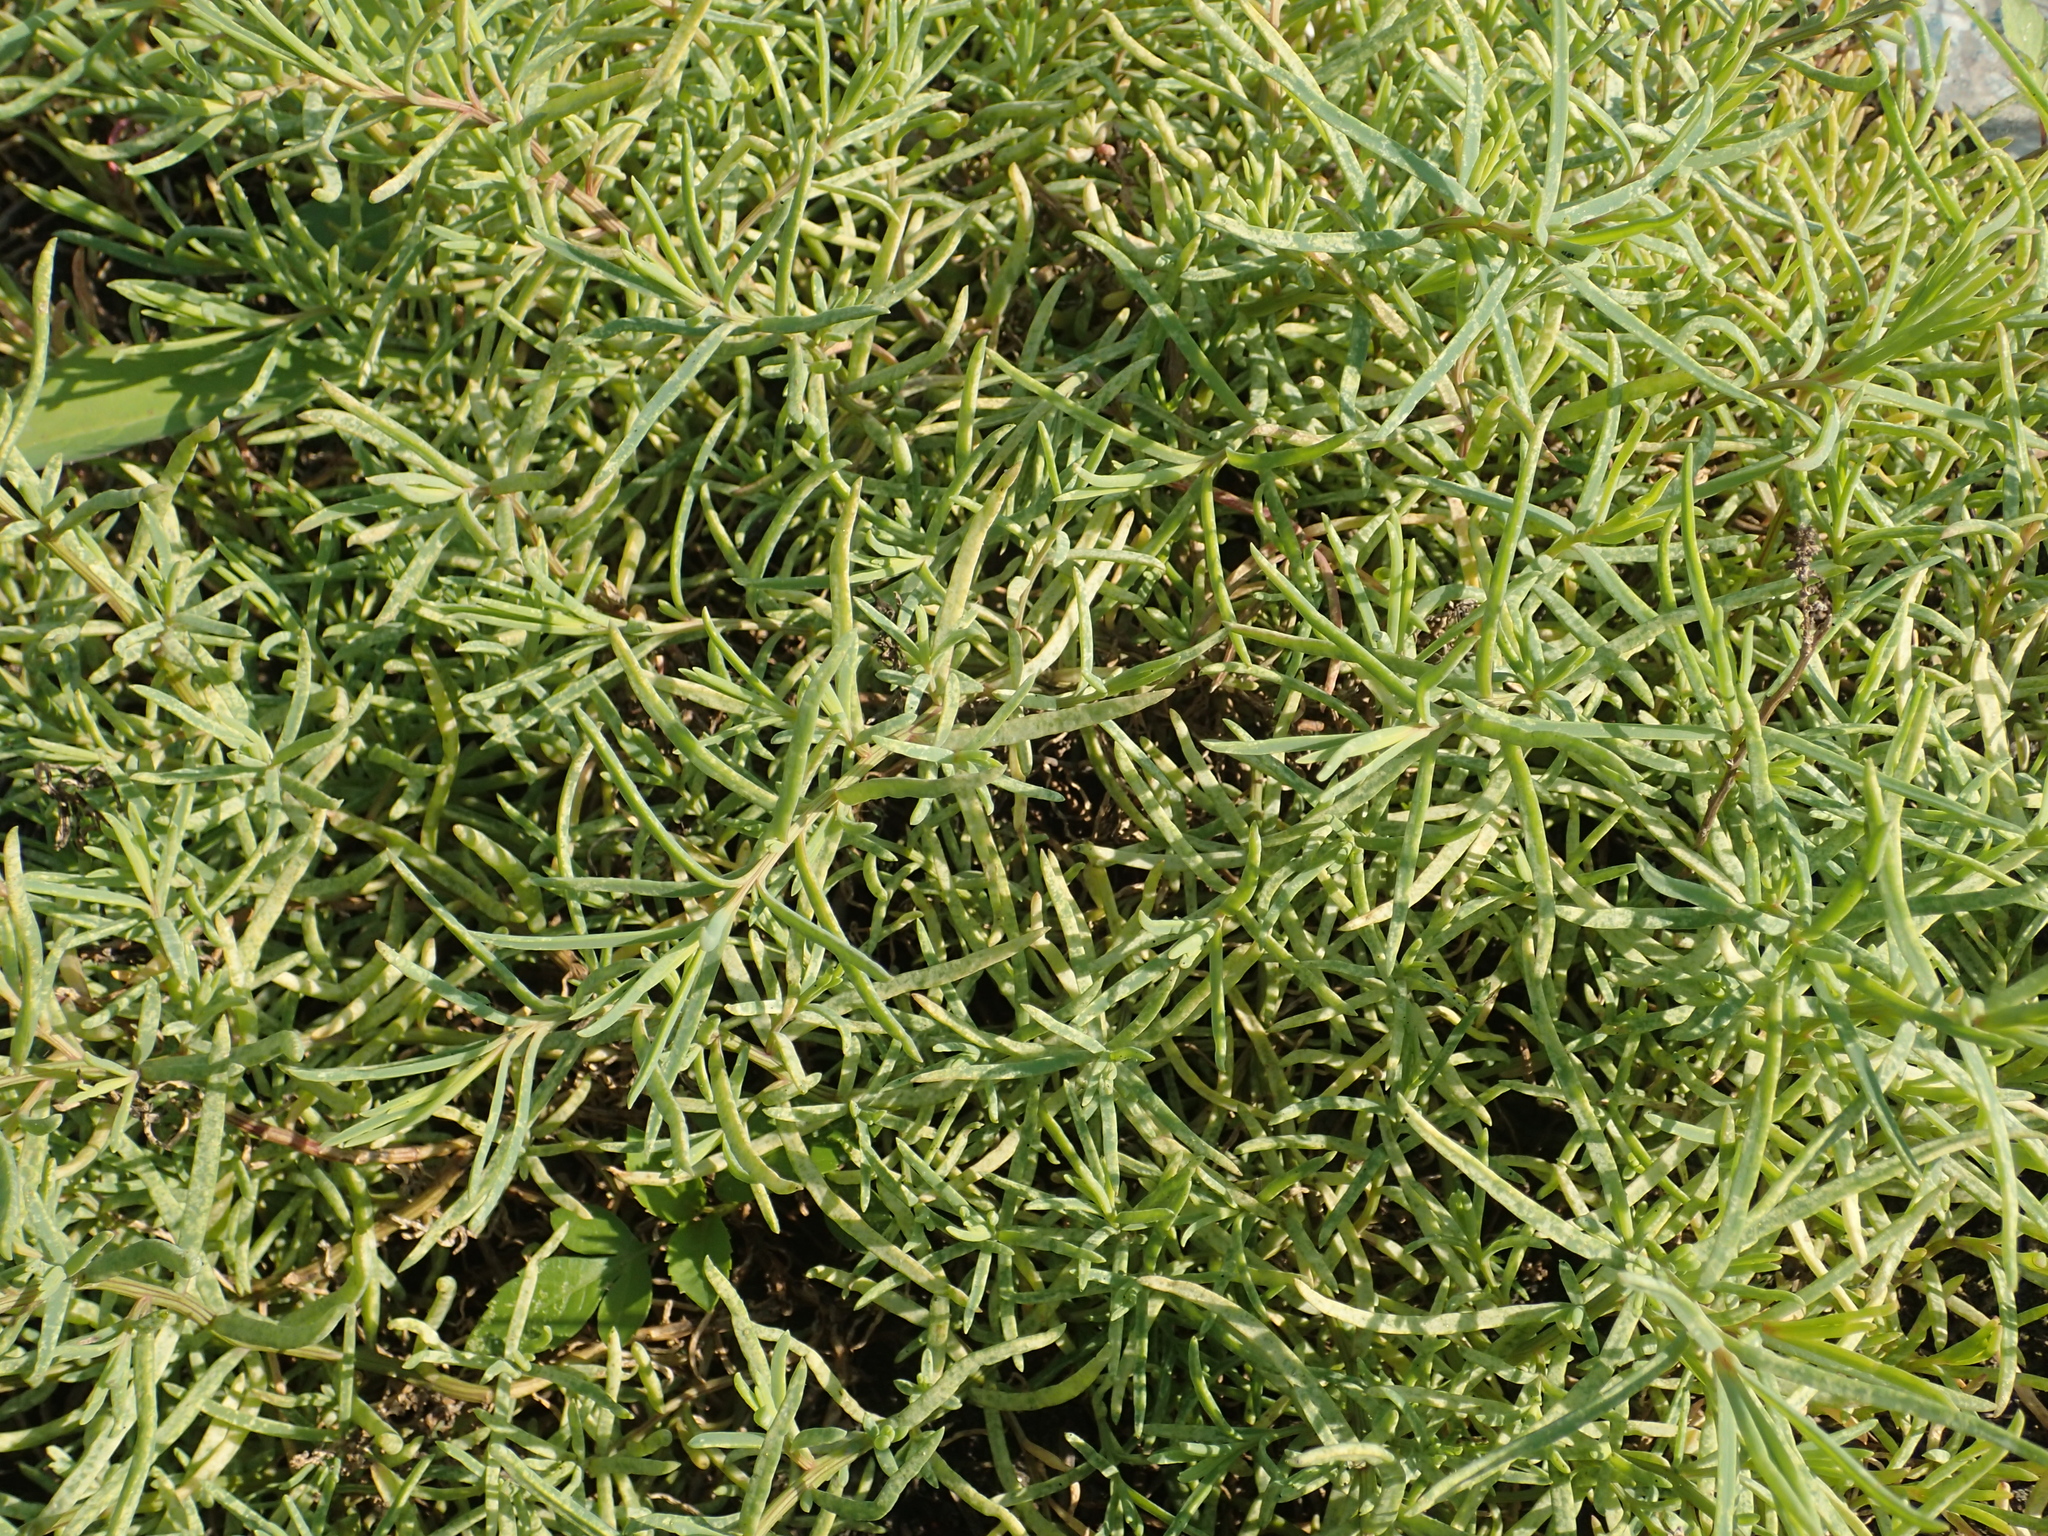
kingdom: Plantae
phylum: Tracheophyta
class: Magnoliopsida
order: Caryophyllales
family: Aizoaceae
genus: Sesuvium
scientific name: Sesuvium portulacastrum
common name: Sea-purslane
